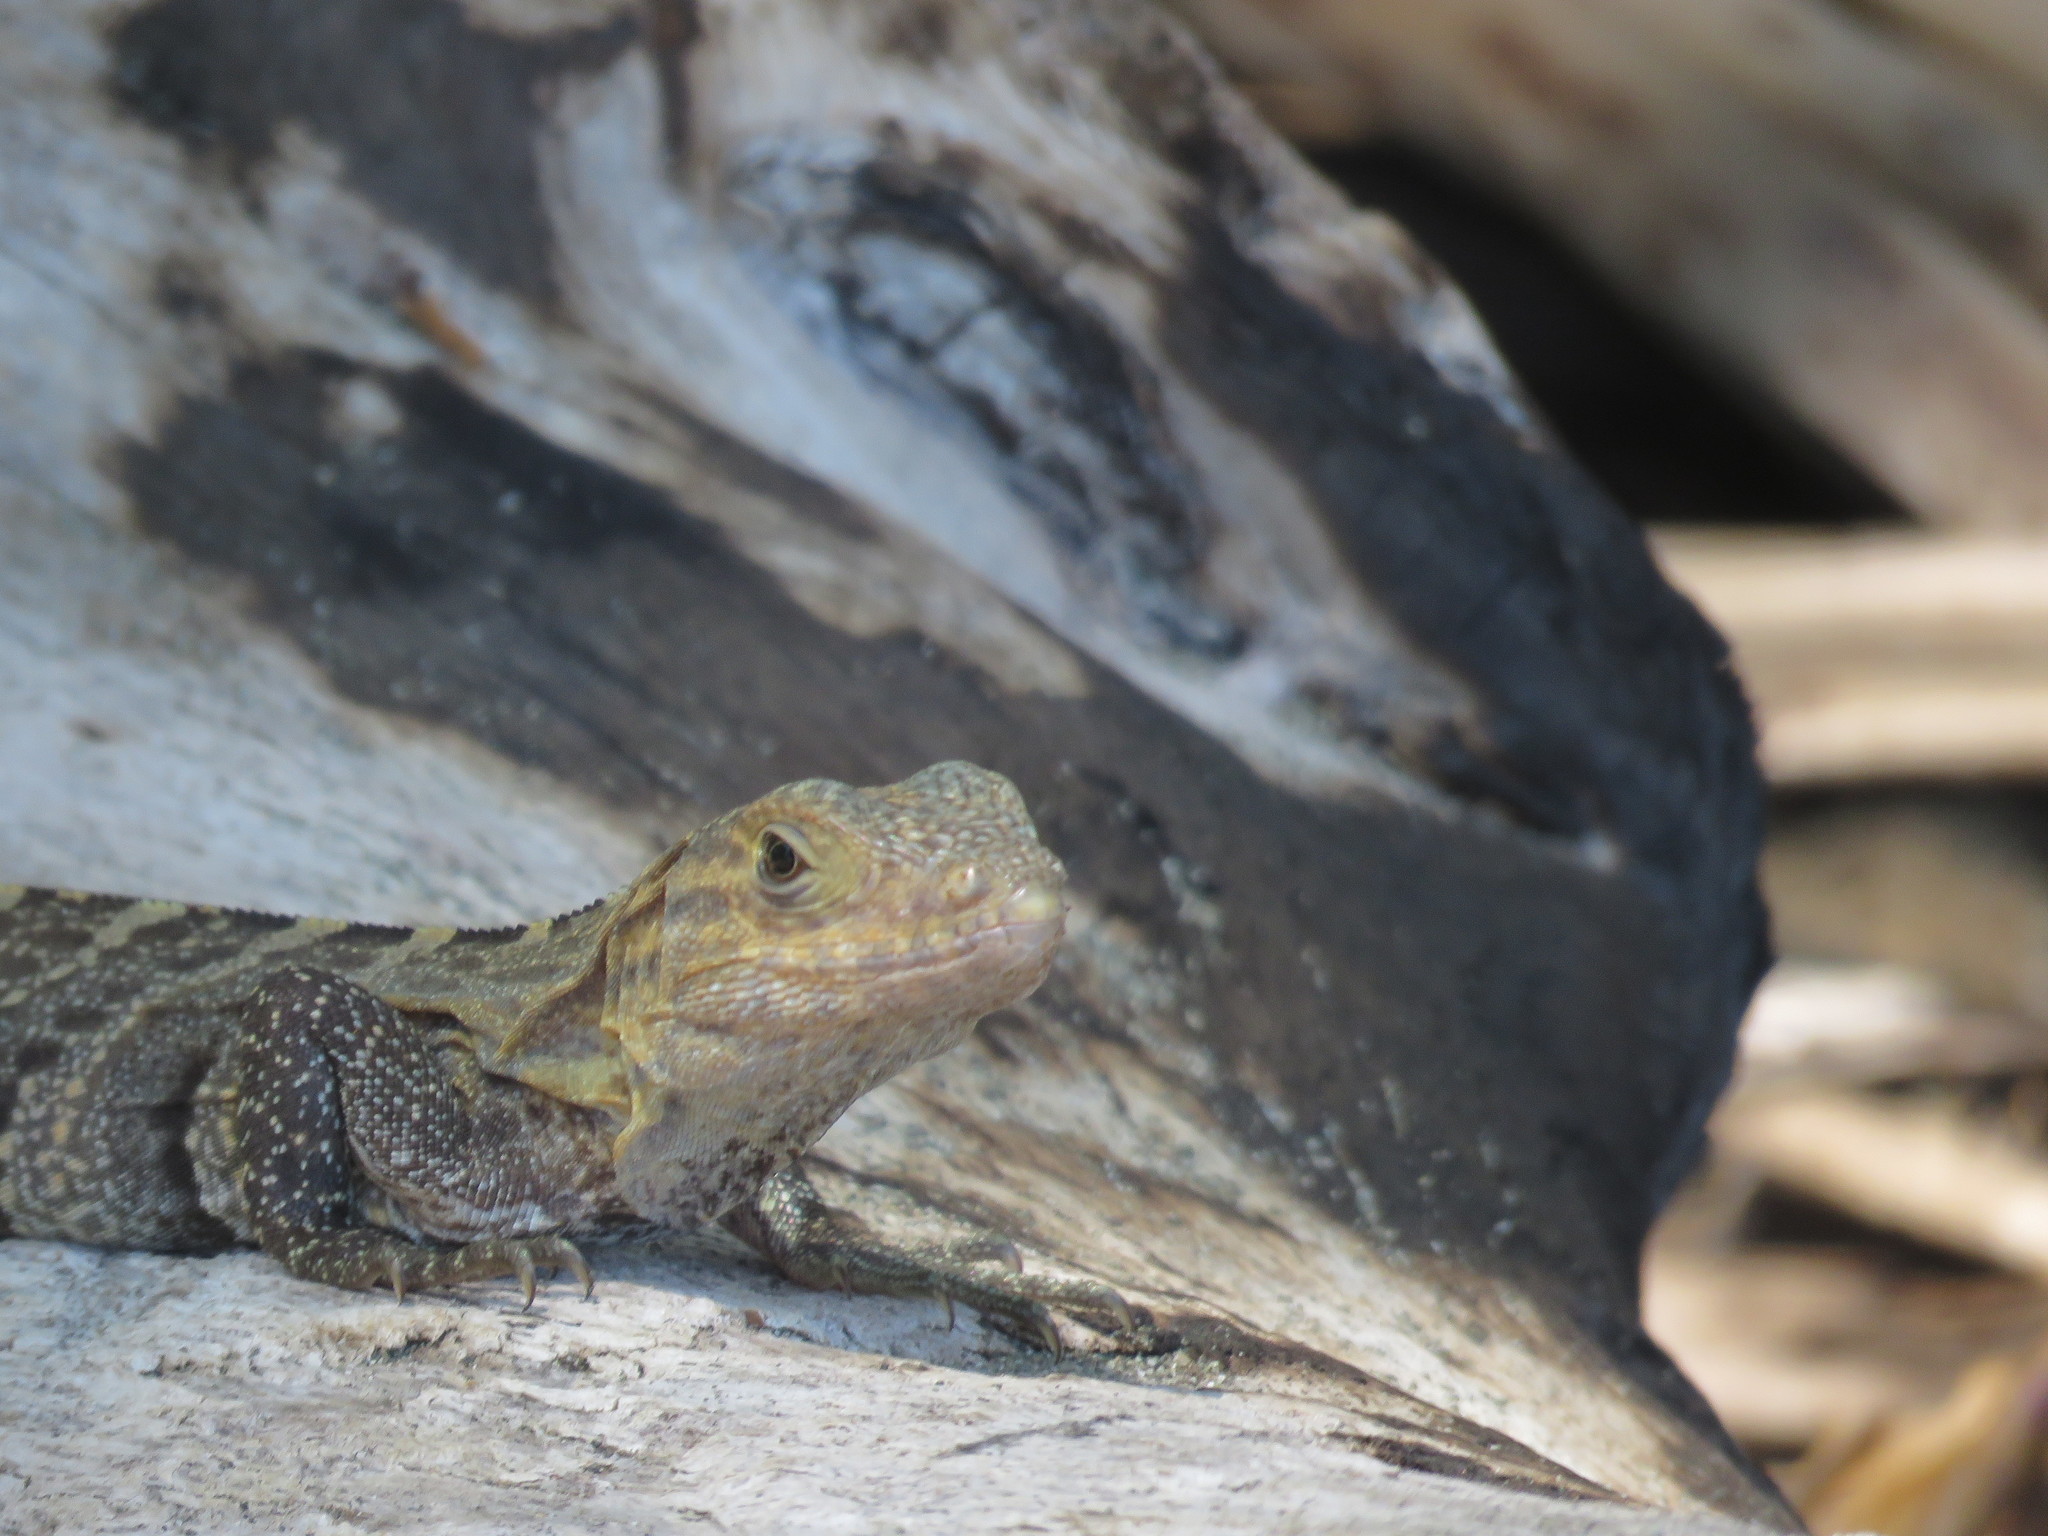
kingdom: Animalia
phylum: Chordata
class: Squamata
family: Iguanidae
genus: Ctenosaura
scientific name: Ctenosaura similis
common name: Black spiny-tailed iguana
